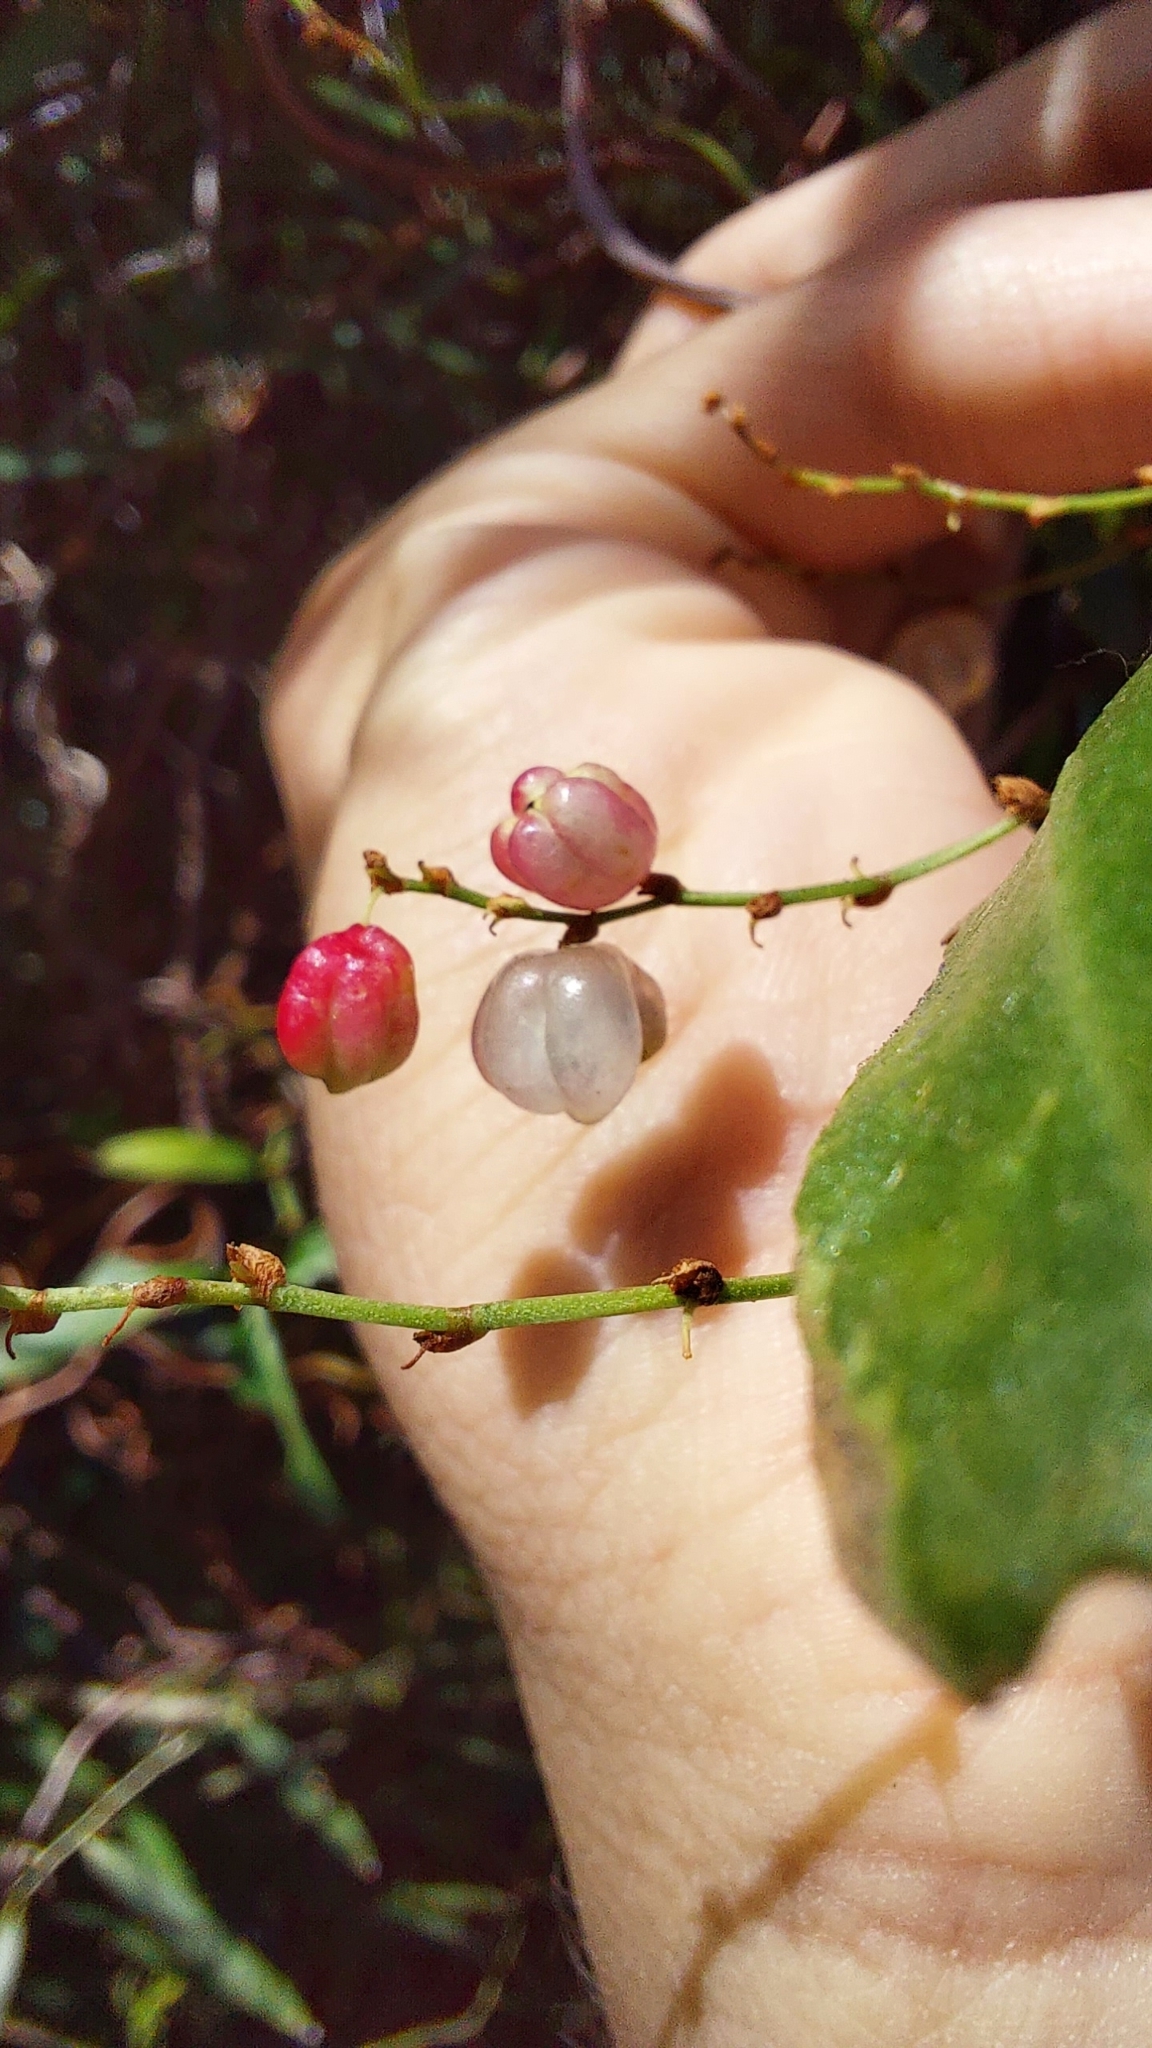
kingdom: Plantae
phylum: Tracheophyta
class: Magnoliopsida
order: Caryophyllales
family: Polygonaceae
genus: Muehlenbeckia
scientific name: Muehlenbeckia sagittifolia
